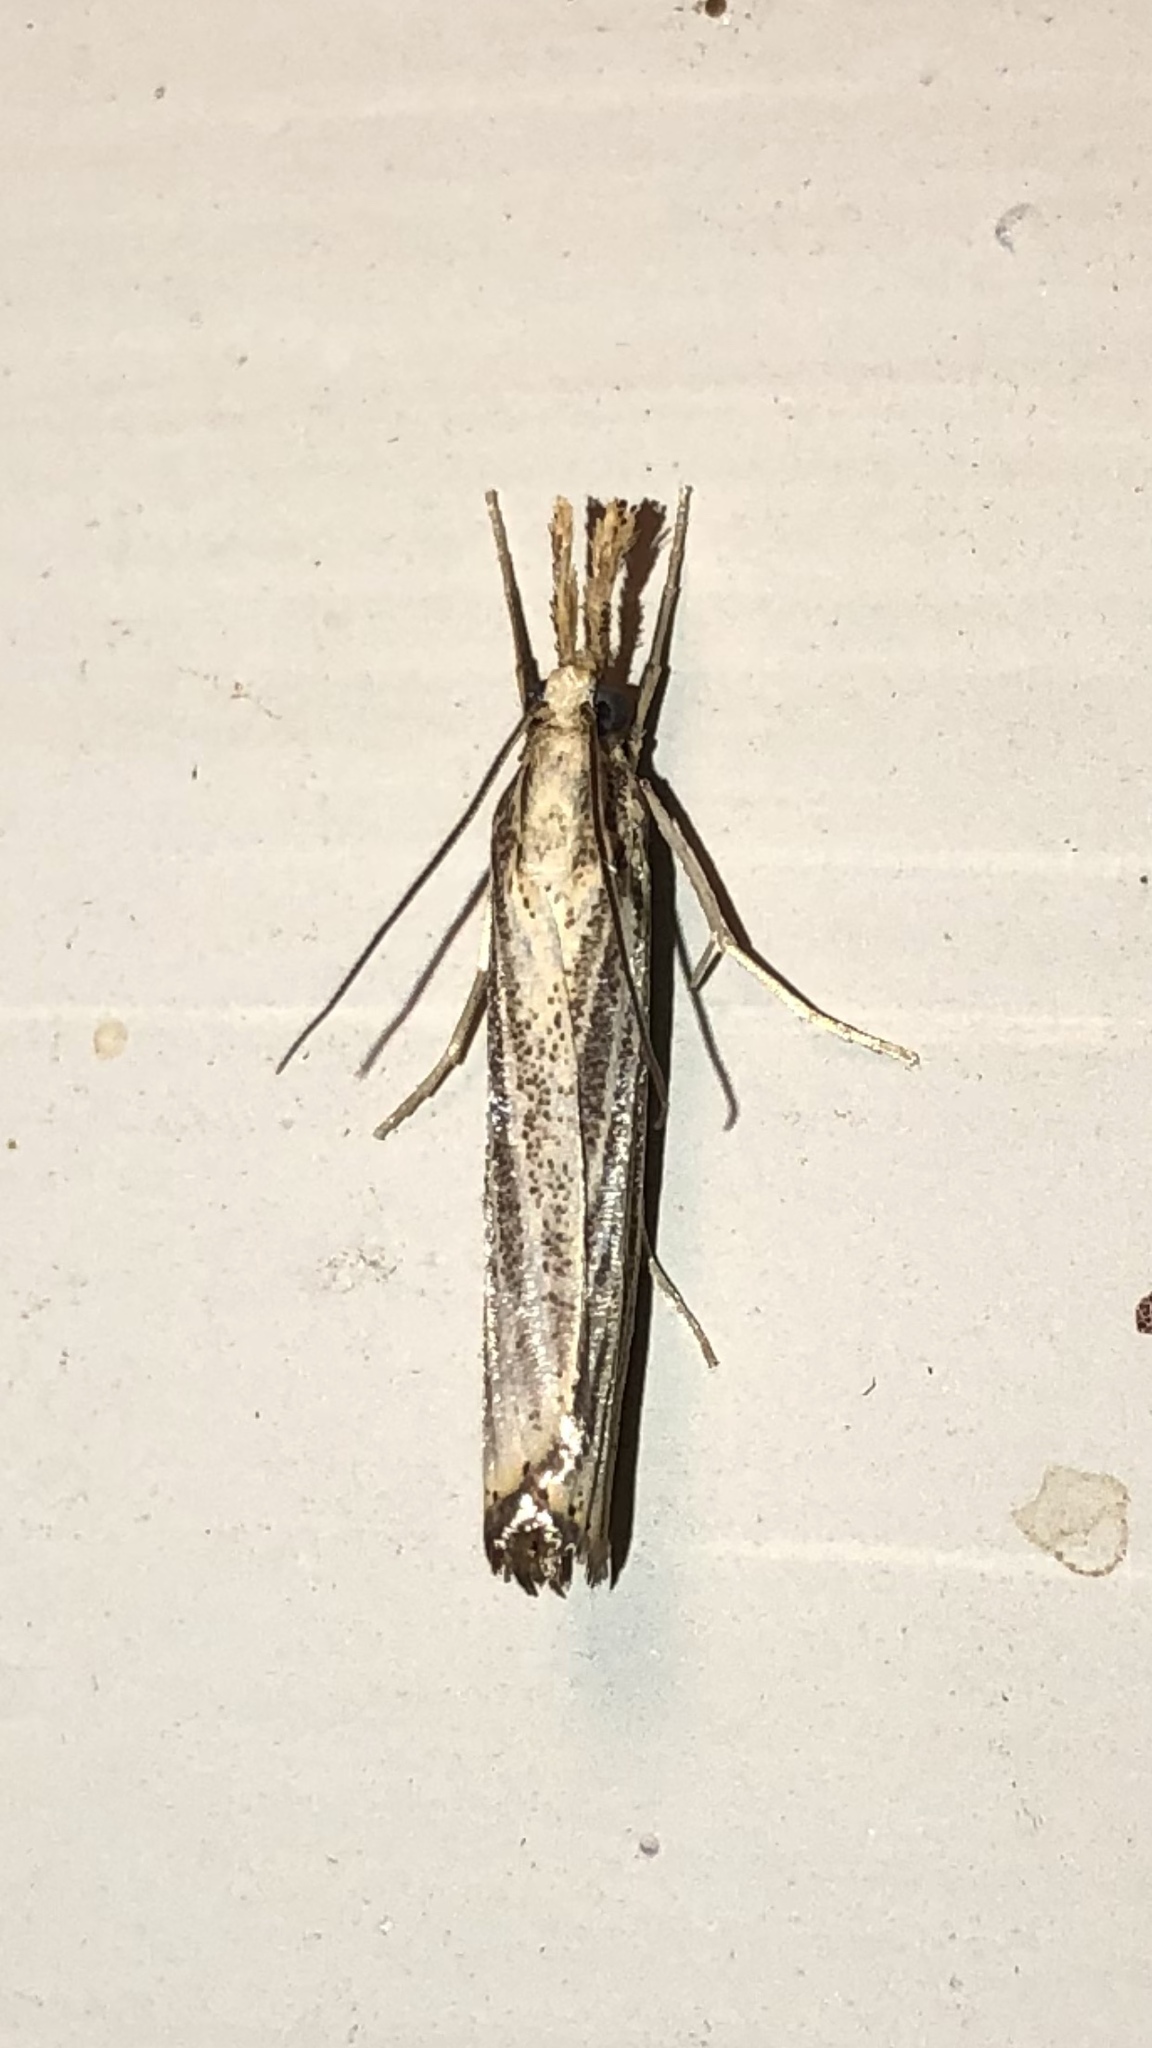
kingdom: Animalia
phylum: Arthropoda
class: Insecta
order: Lepidoptera
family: Crambidae
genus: Agriphila
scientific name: Agriphila vulgivagellus
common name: Vagabond crambus moth
